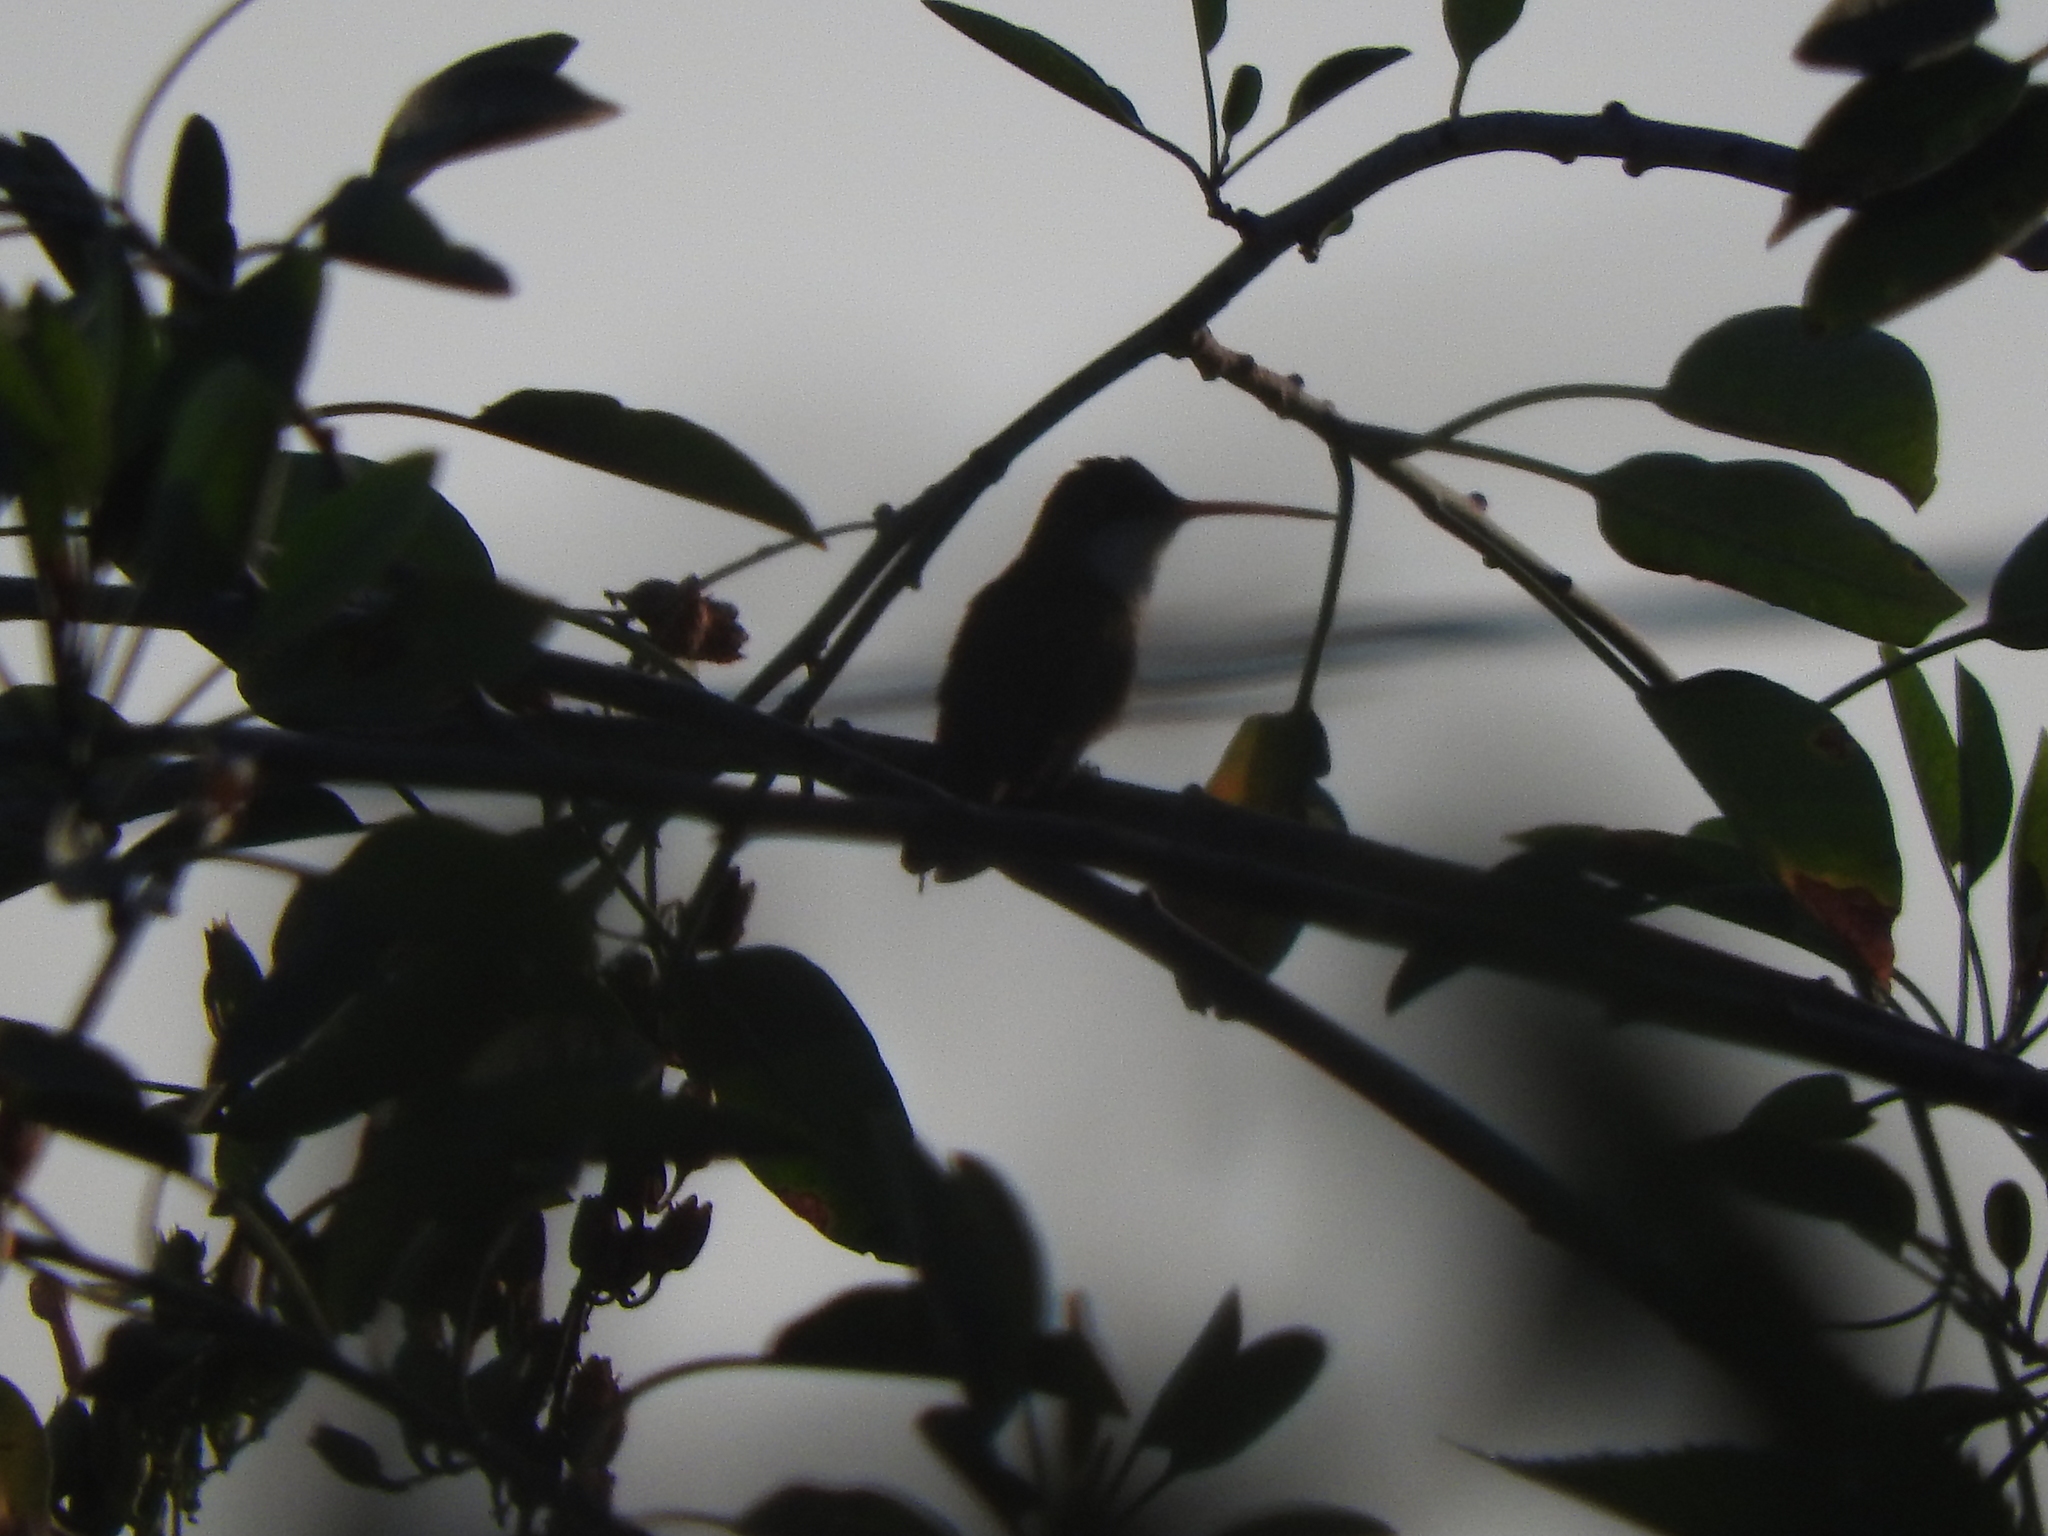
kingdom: Animalia
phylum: Chordata
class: Aves
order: Apodiformes
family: Trochilidae
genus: Leucolia
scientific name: Leucolia violiceps
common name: Violet-crowned hummingbird
